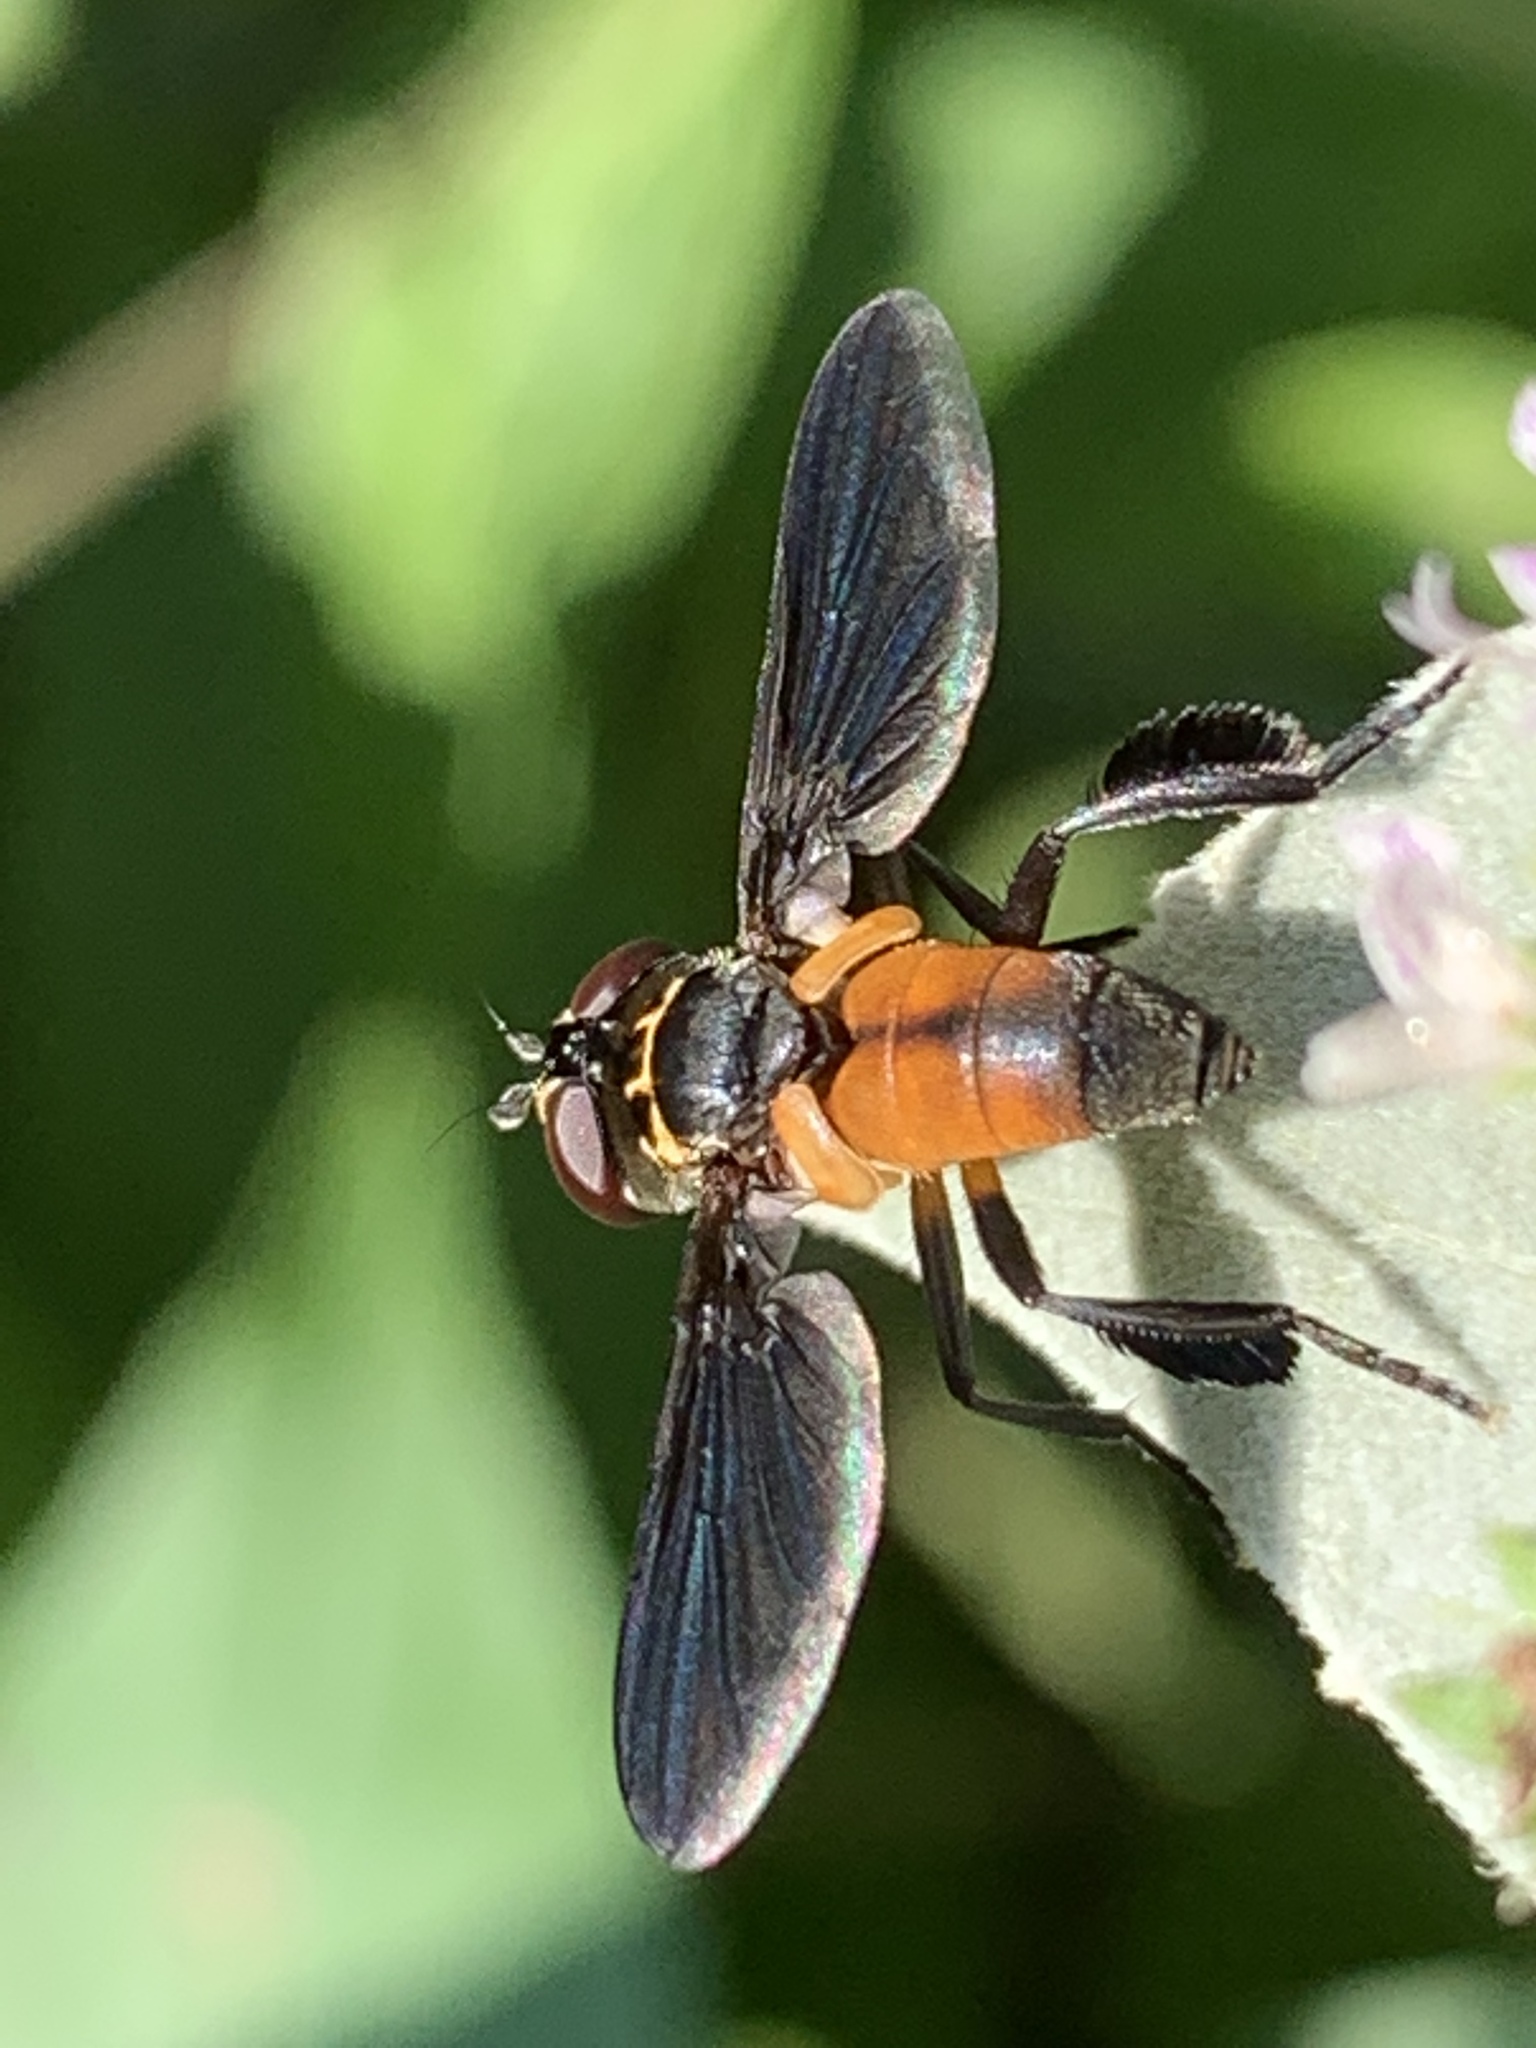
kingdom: Animalia
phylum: Arthropoda
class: Insecta
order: Diptera
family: Tachinidae
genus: Trichopoda
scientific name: Trichopoda pennipes
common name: Tachinid fly
